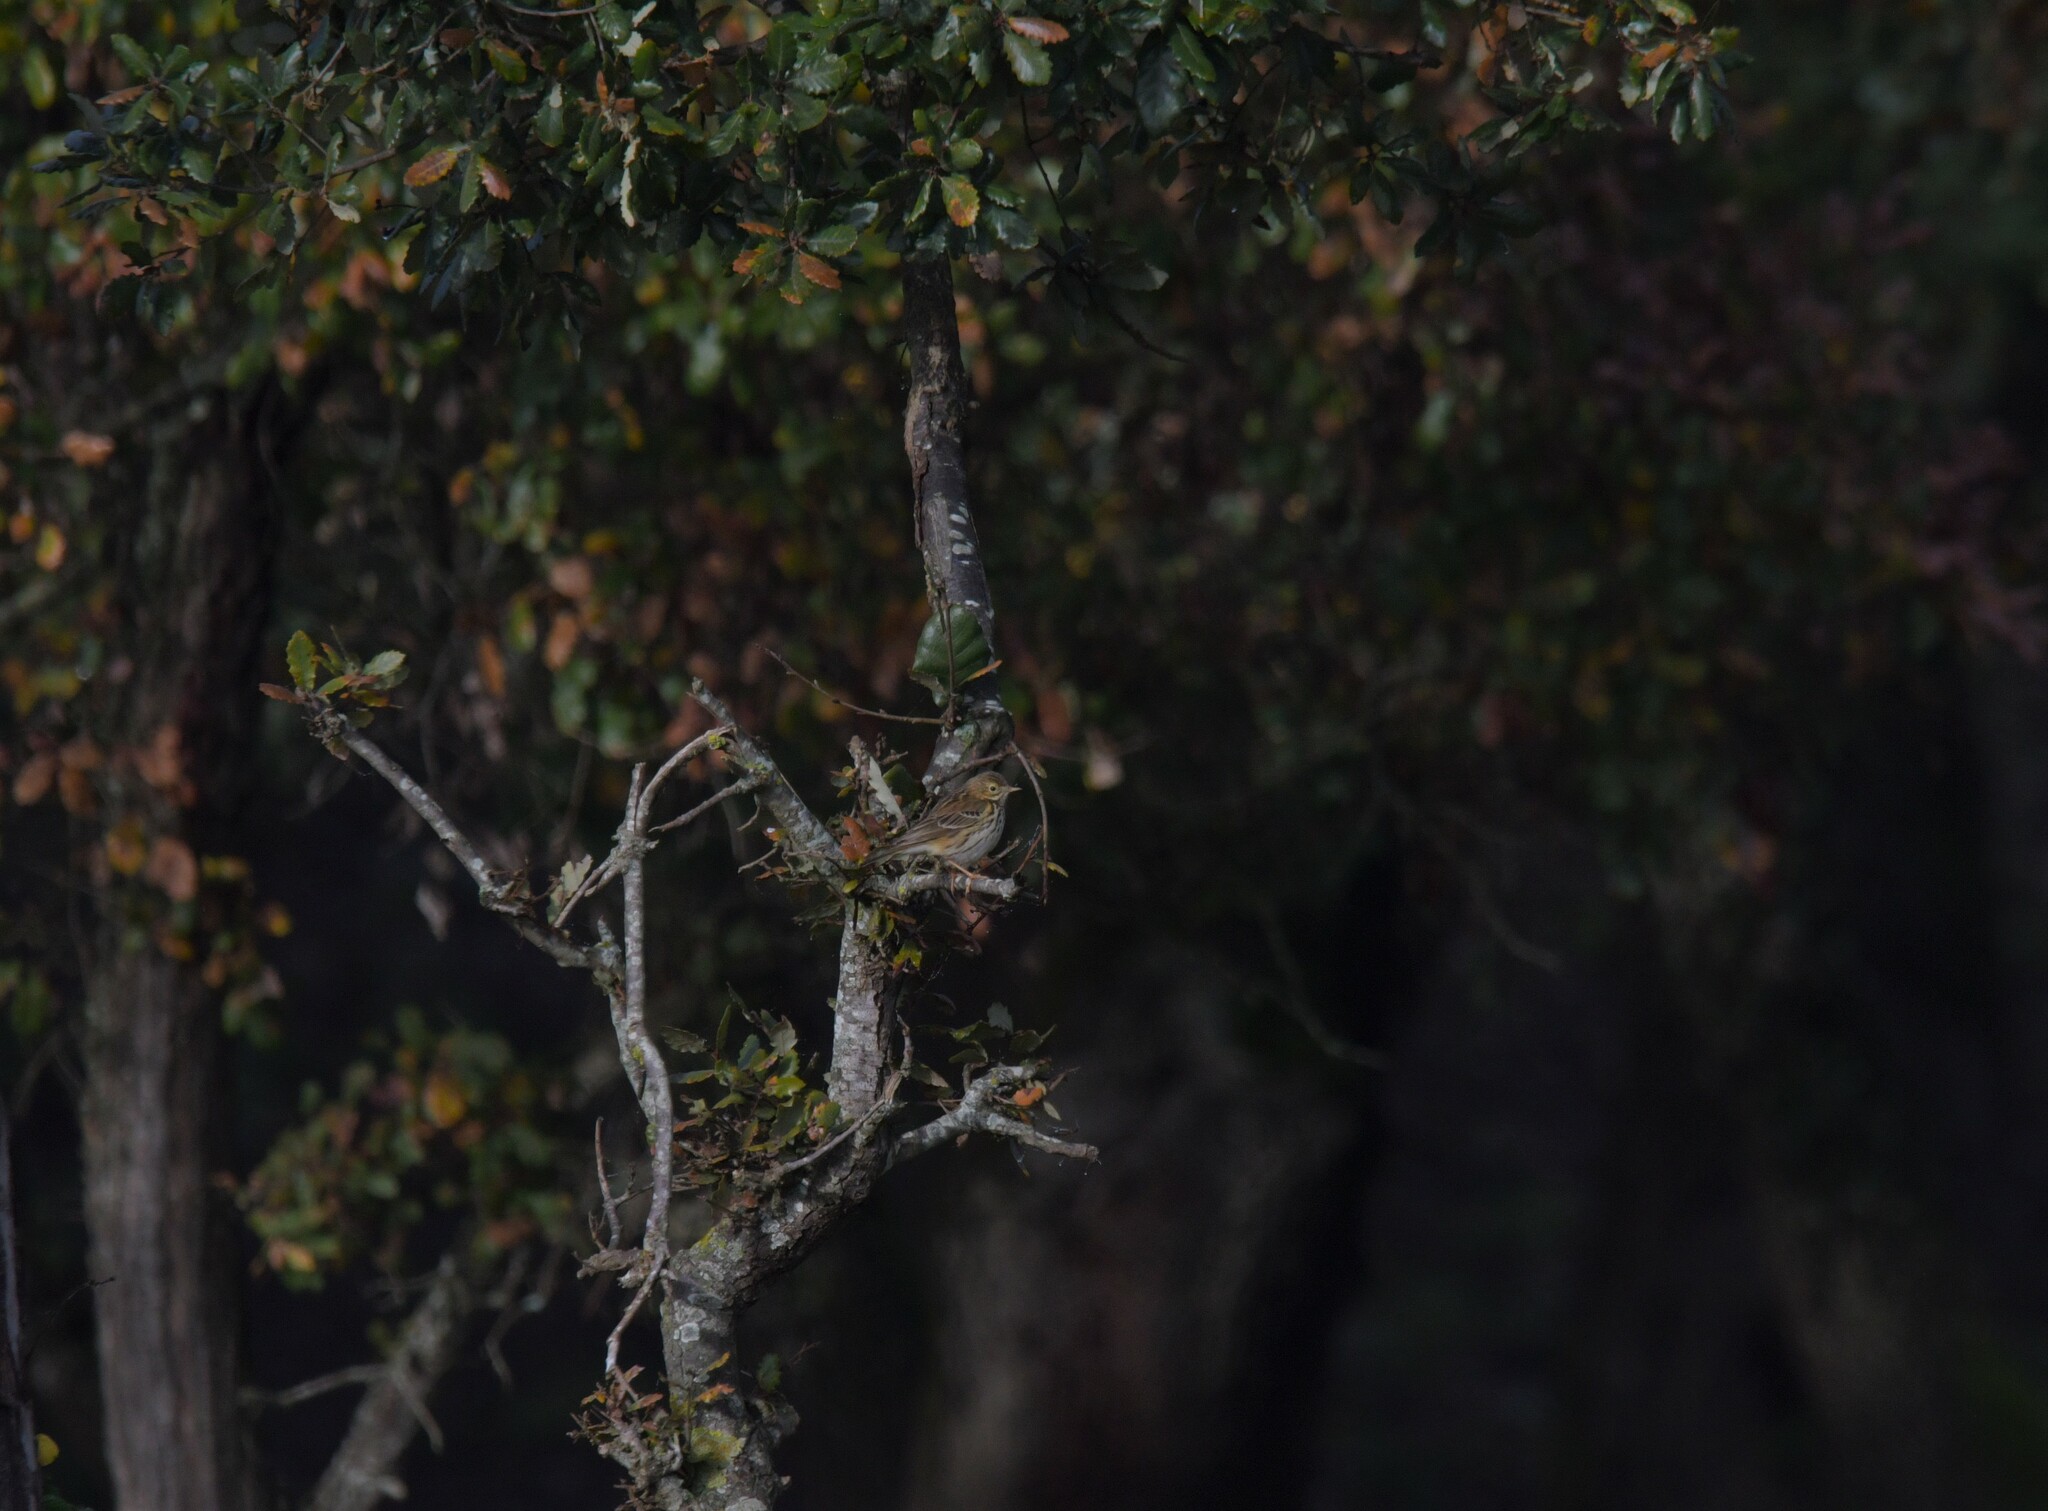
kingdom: Animalia
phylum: Chordata
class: Aves
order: Passeriformes
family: Motacillidae
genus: Anthus
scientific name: Anthus pratensis
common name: Meadow pipit
